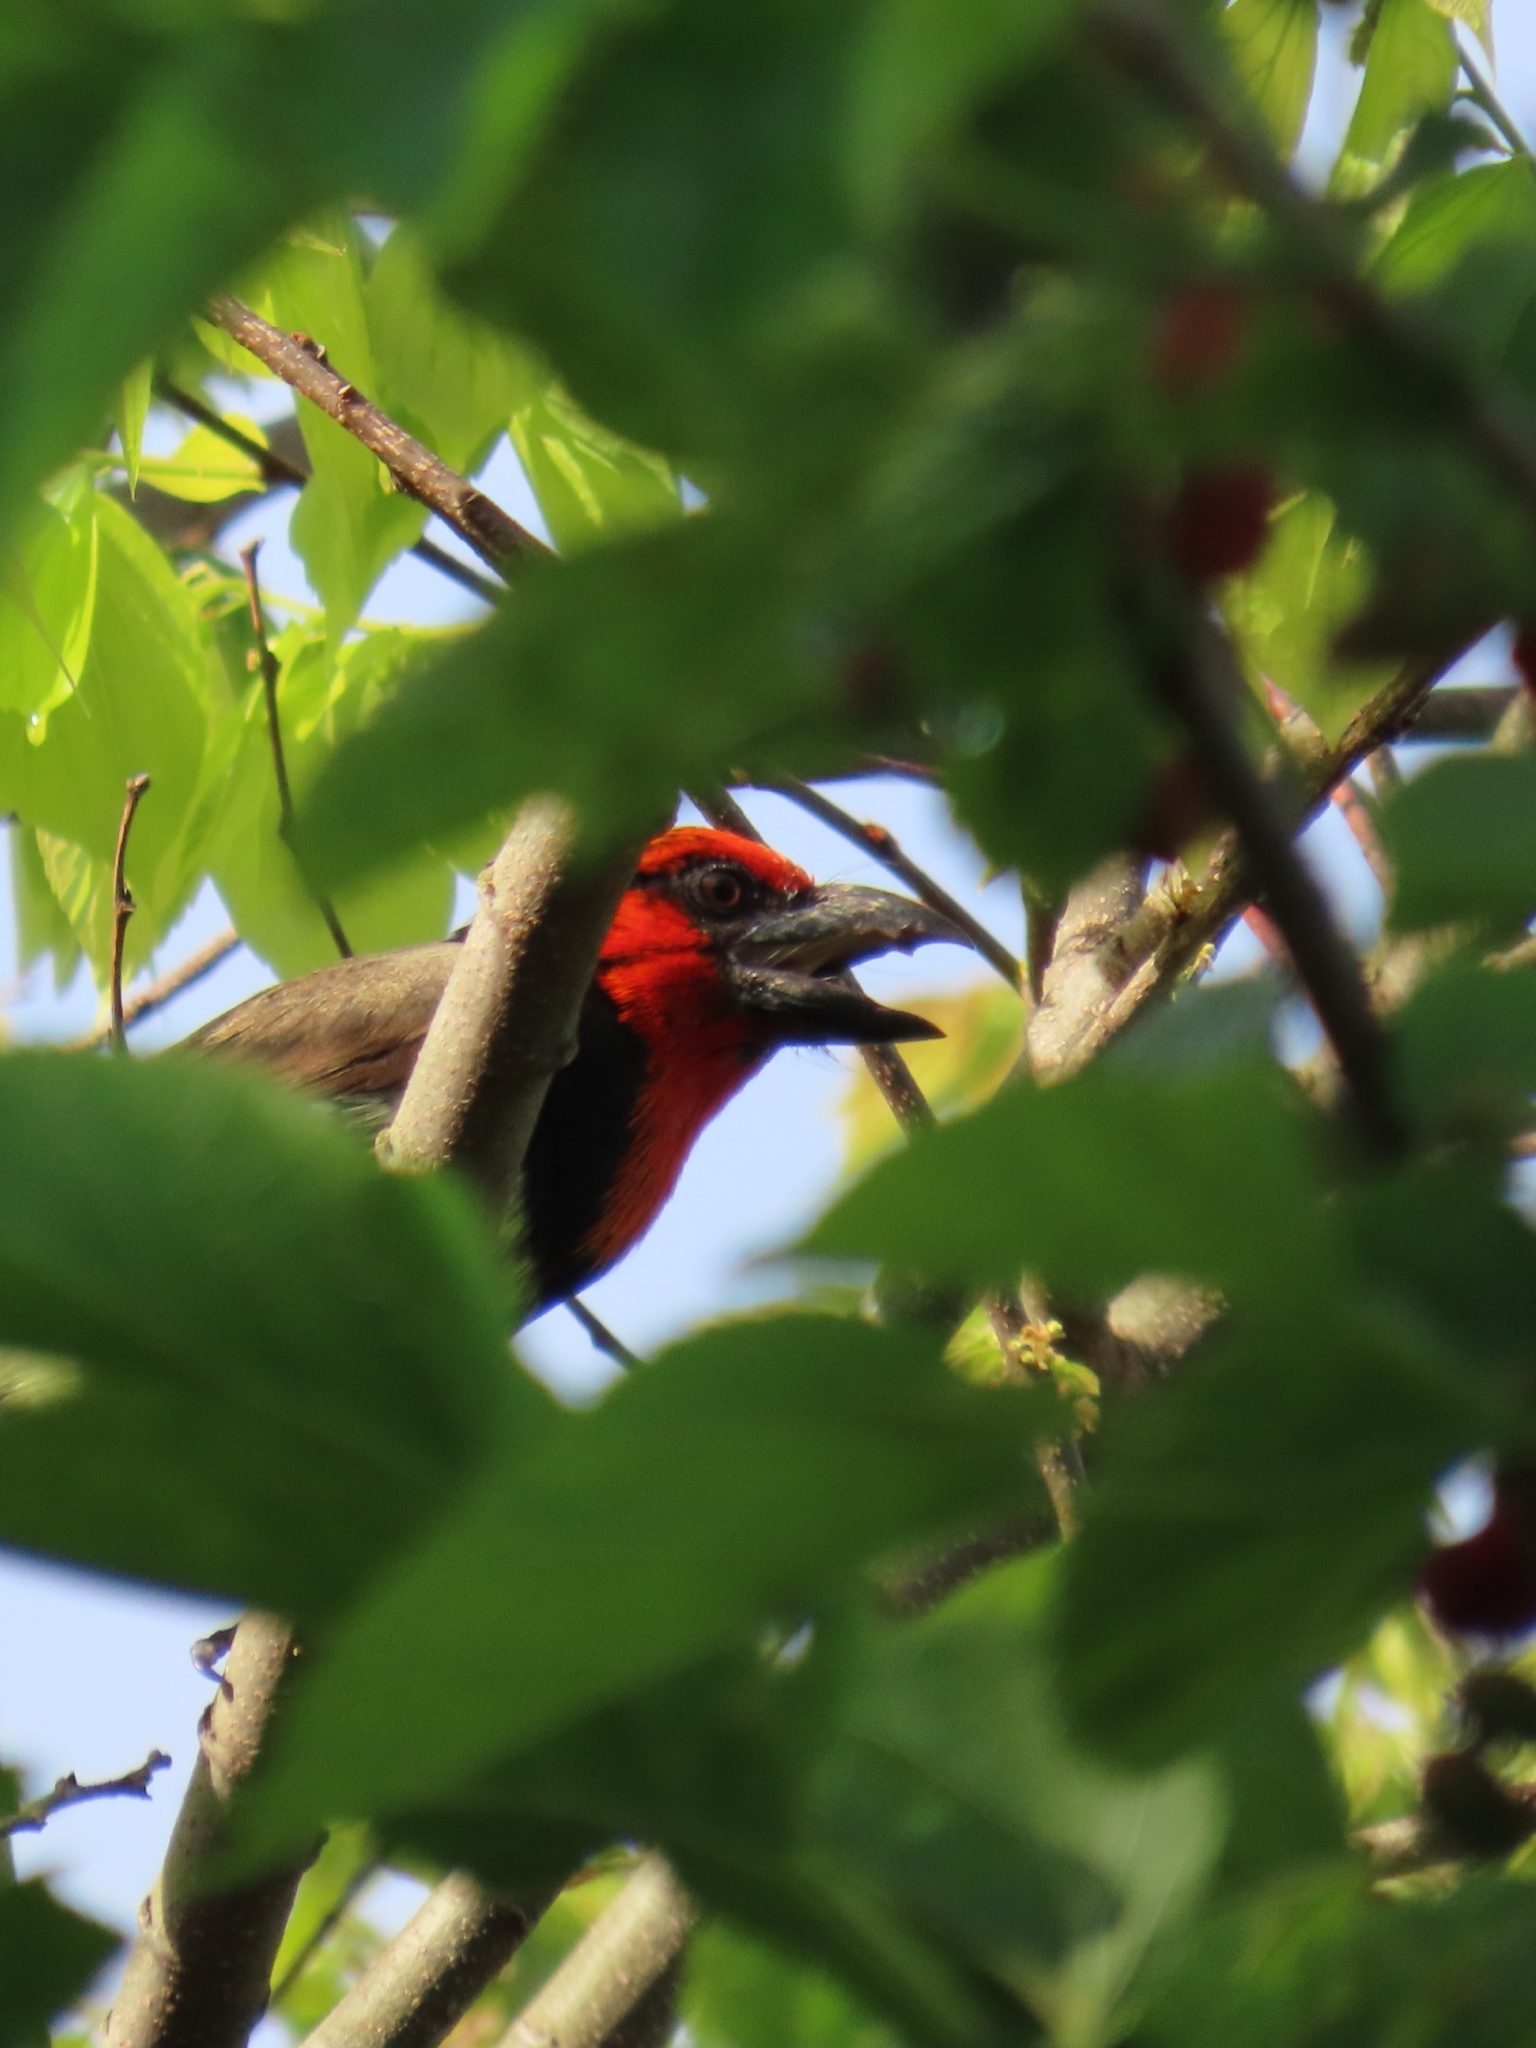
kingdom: Animalia
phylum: Chordata
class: Aves
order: Piciformes
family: Lybiidae
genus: Lybius
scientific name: Lybius torquatus
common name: Black-collared barbet
